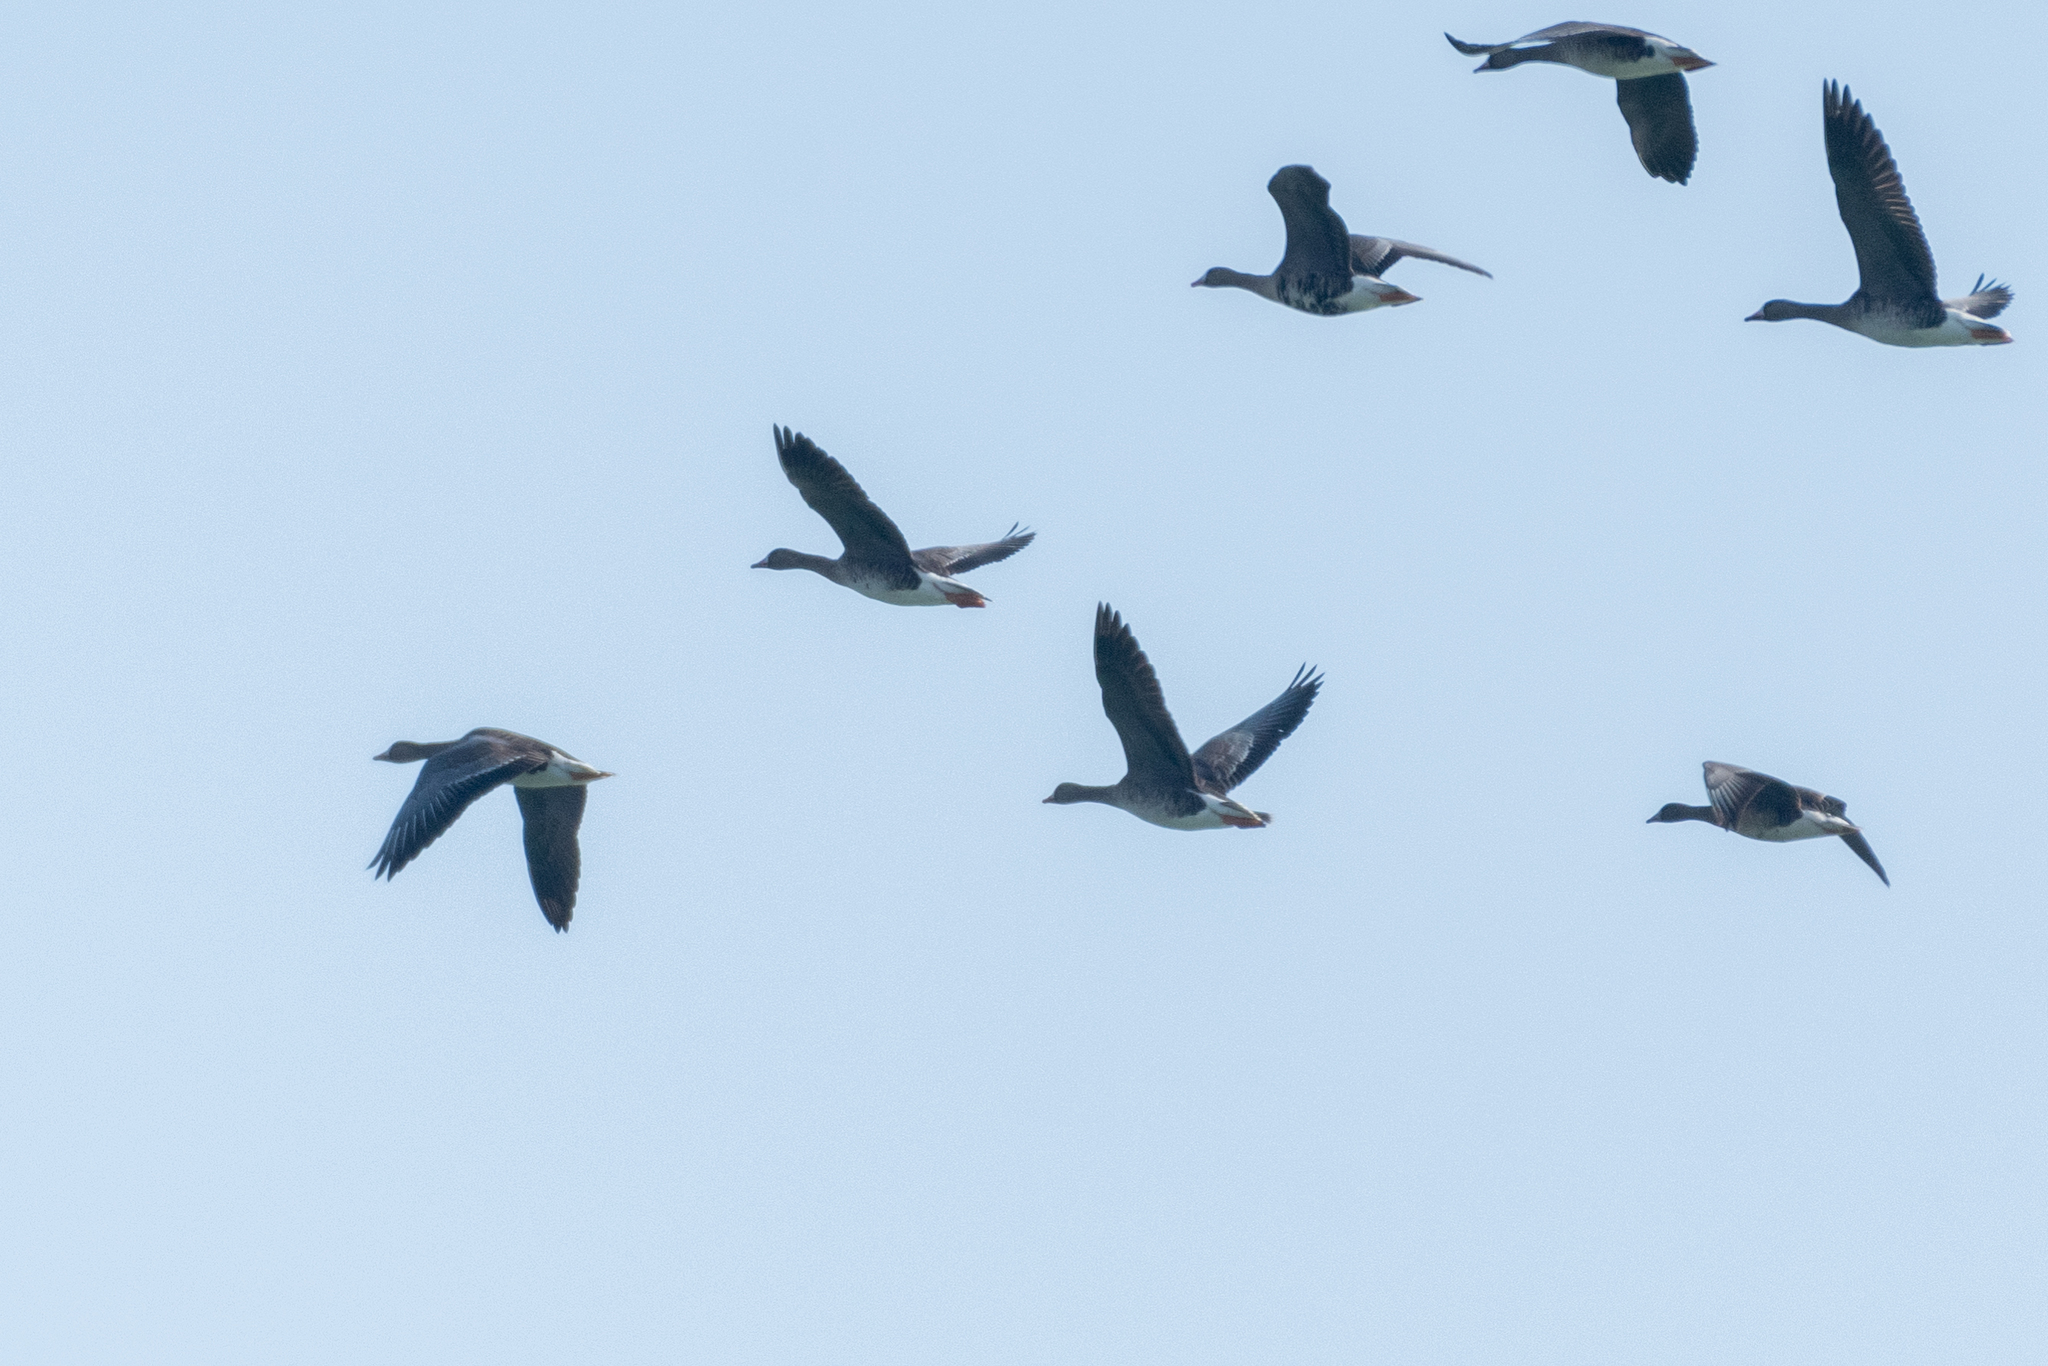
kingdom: Animalia
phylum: Chordata
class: Aves
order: Anseriformes
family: Anatidae
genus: Anser
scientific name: Anser albifrons
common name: Greater white-fronted goose
